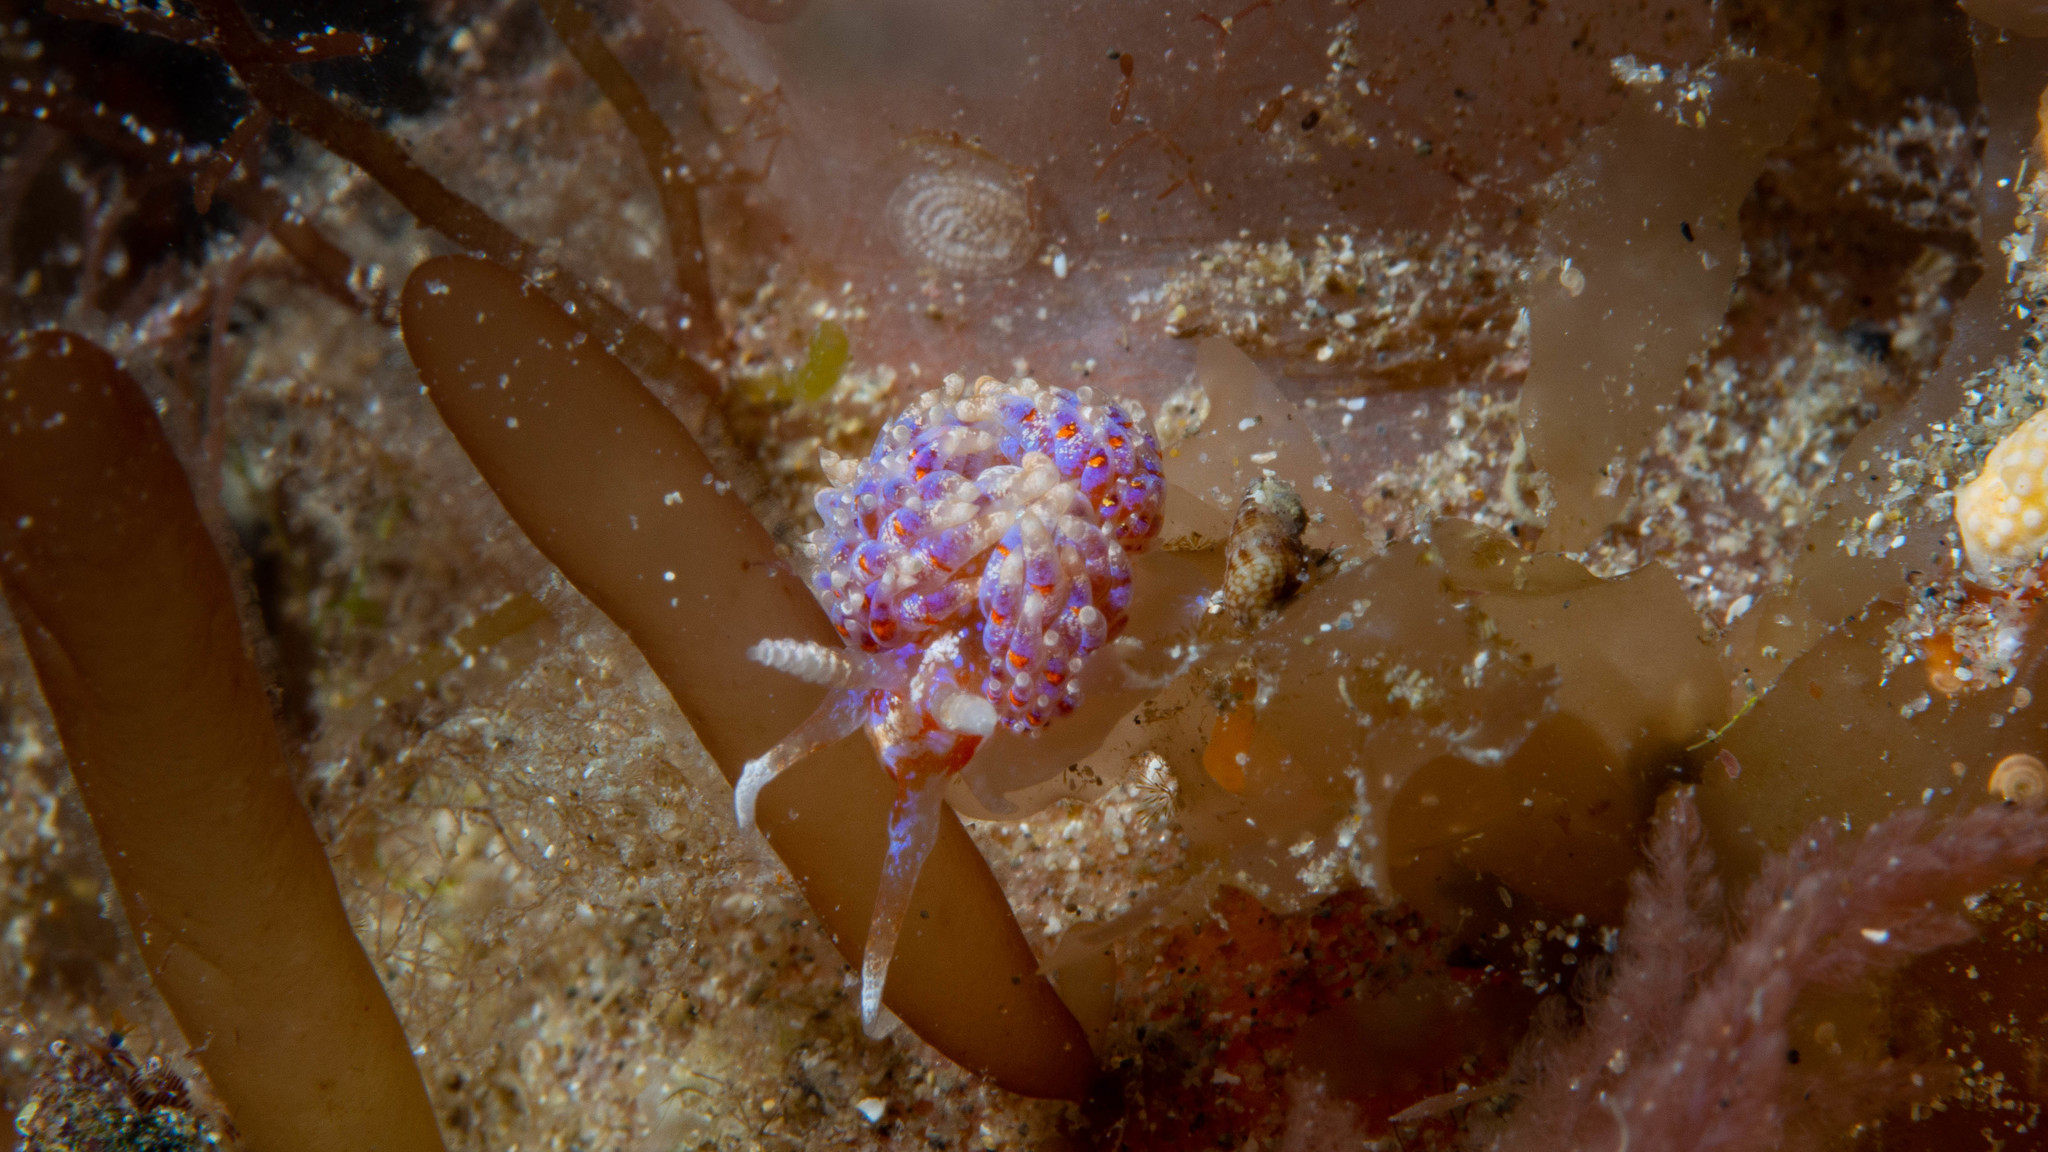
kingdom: Animalia
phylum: Mollusca
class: Gastropoda
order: Nudibranchia
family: Facelinidae
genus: Austraeolis
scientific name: Austraeolis ornata
